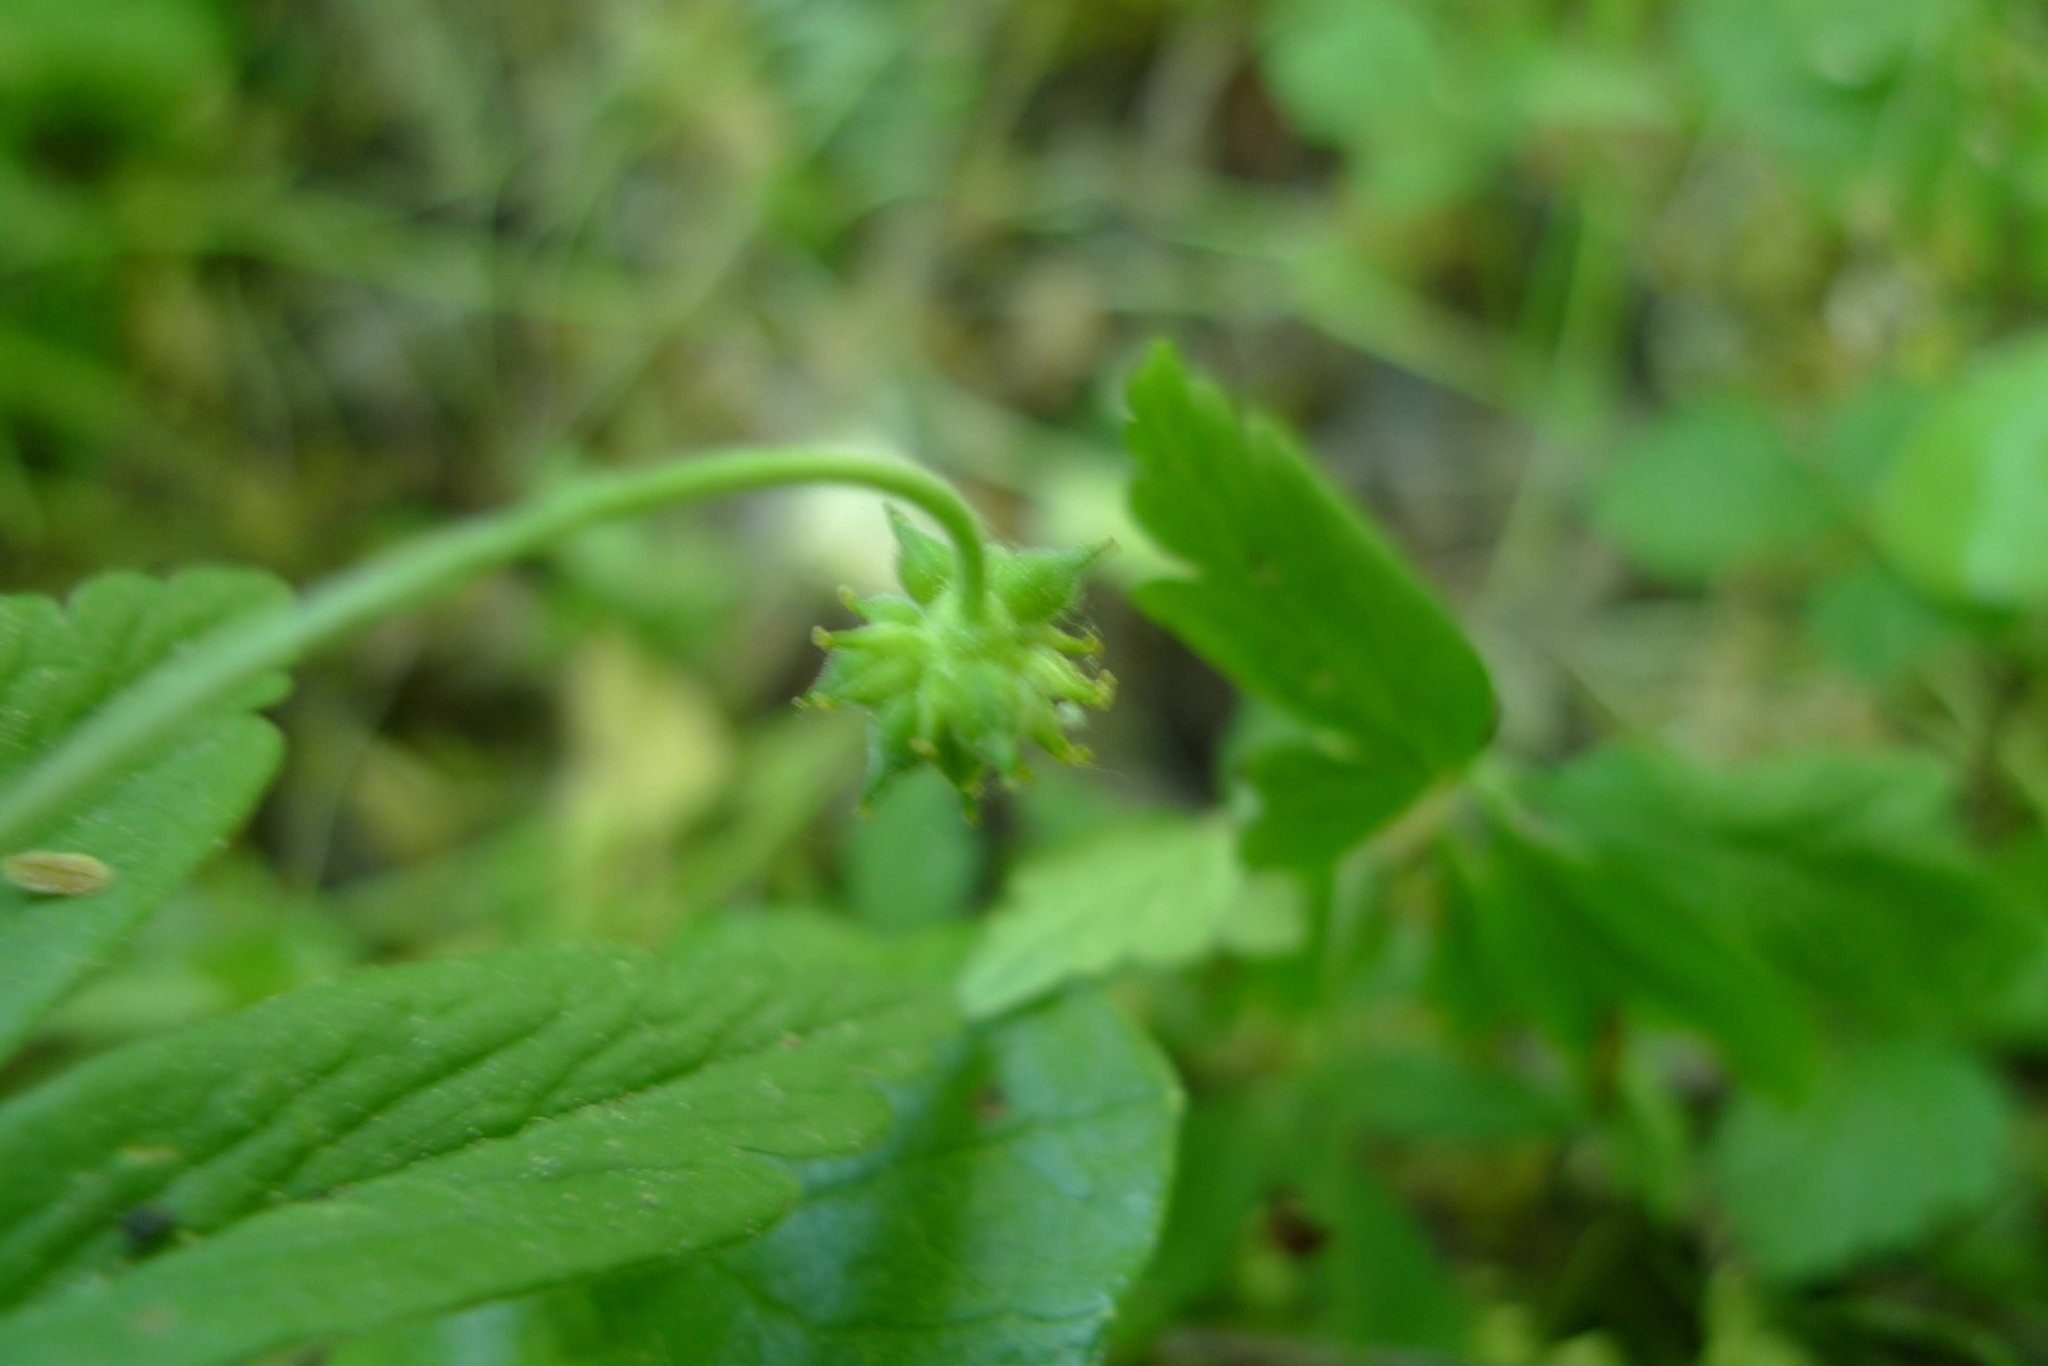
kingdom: Plantae
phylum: Tracheophyta
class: Magnoliopsida
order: Ranunculales
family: Ranunculaceae
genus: Anemone
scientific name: Anemone ranunculoides
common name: Yellow anemone
